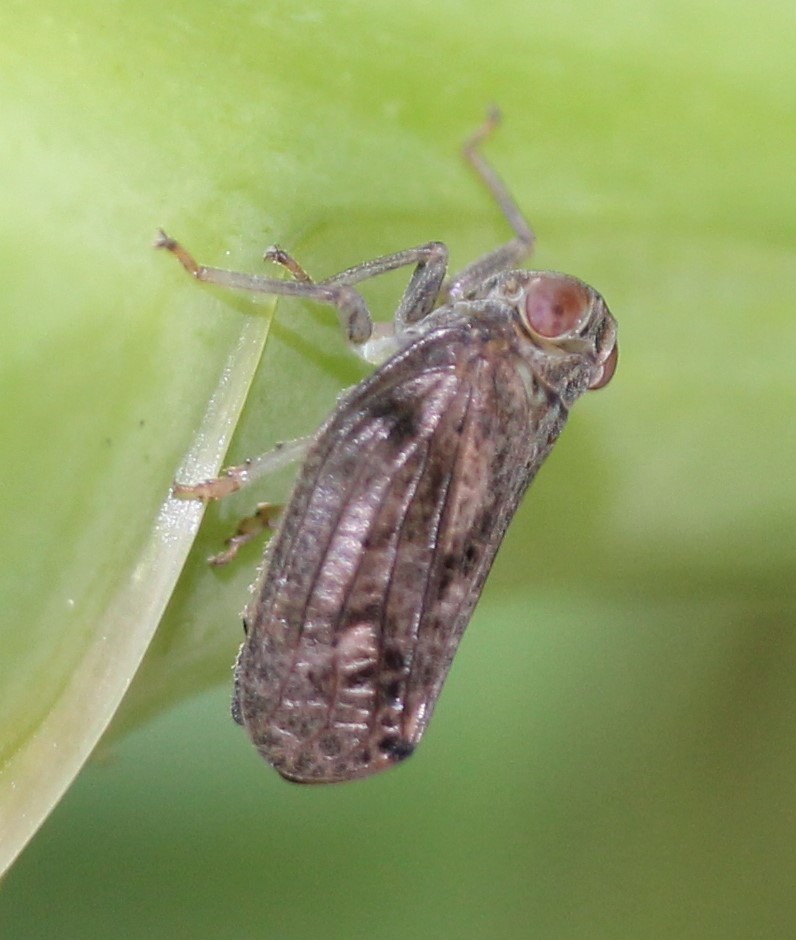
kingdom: Animalia
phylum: Arthropoda
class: Insecta
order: Hemiptera
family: Issidae
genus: Thionia
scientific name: Thionia bullata
